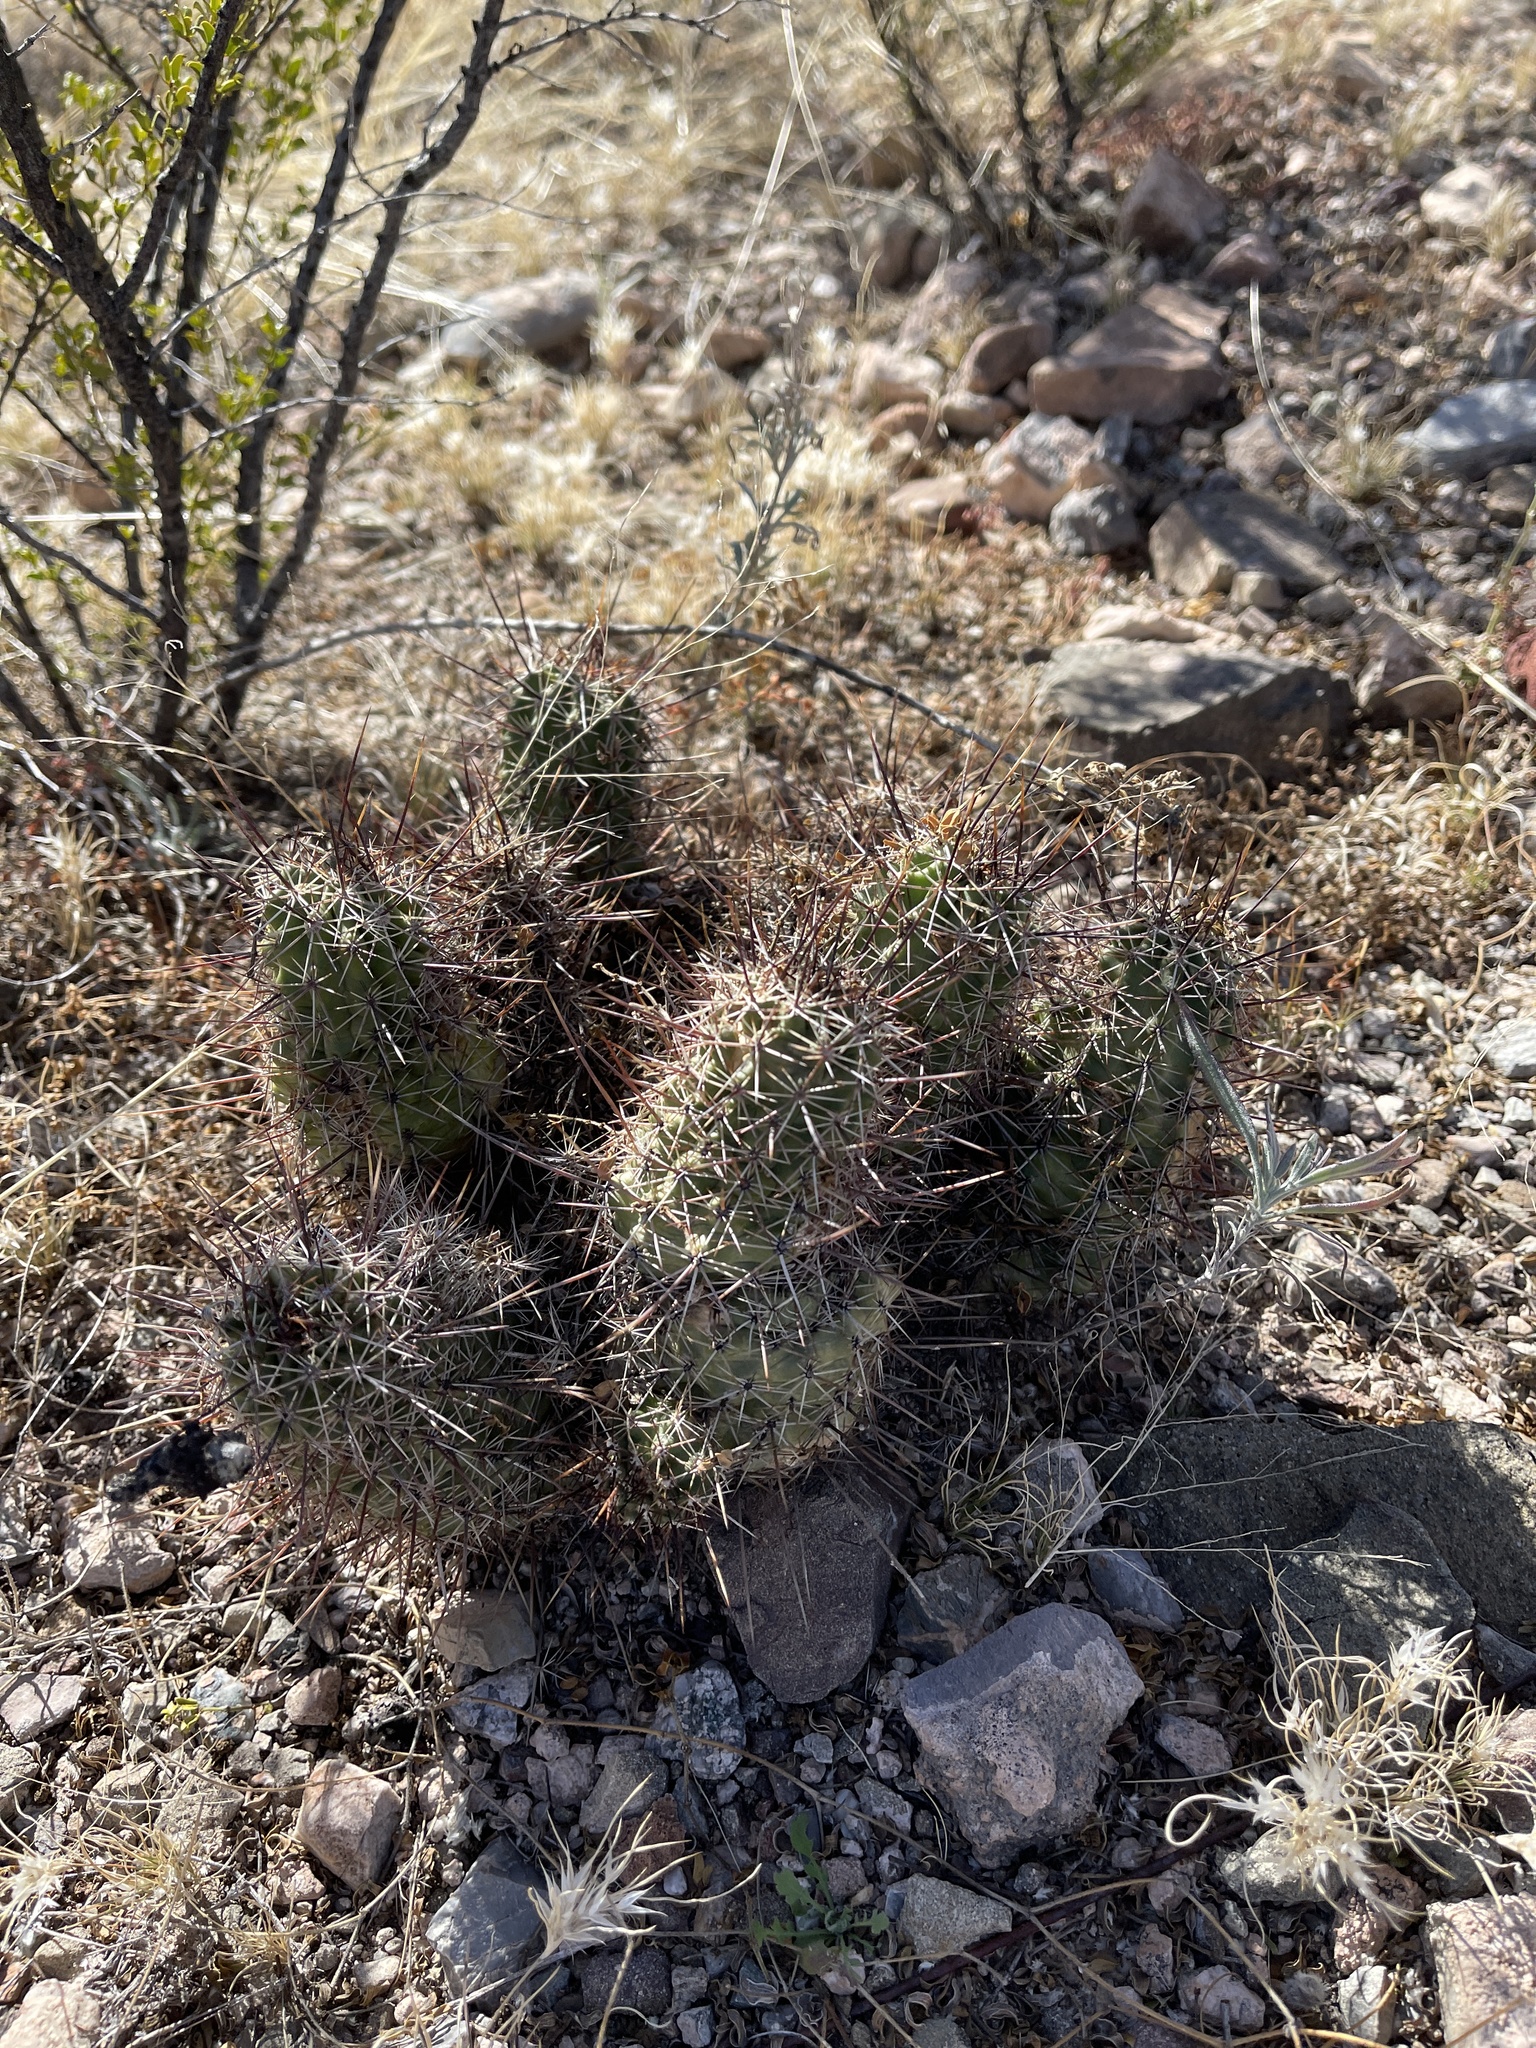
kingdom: Plantae
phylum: Tracheophyta
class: Magnoliopsida
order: Caryophyllales
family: Cactaceae
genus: Echinocereus
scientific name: Echinocereus fasciculatus
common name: Bundle hedgehog
